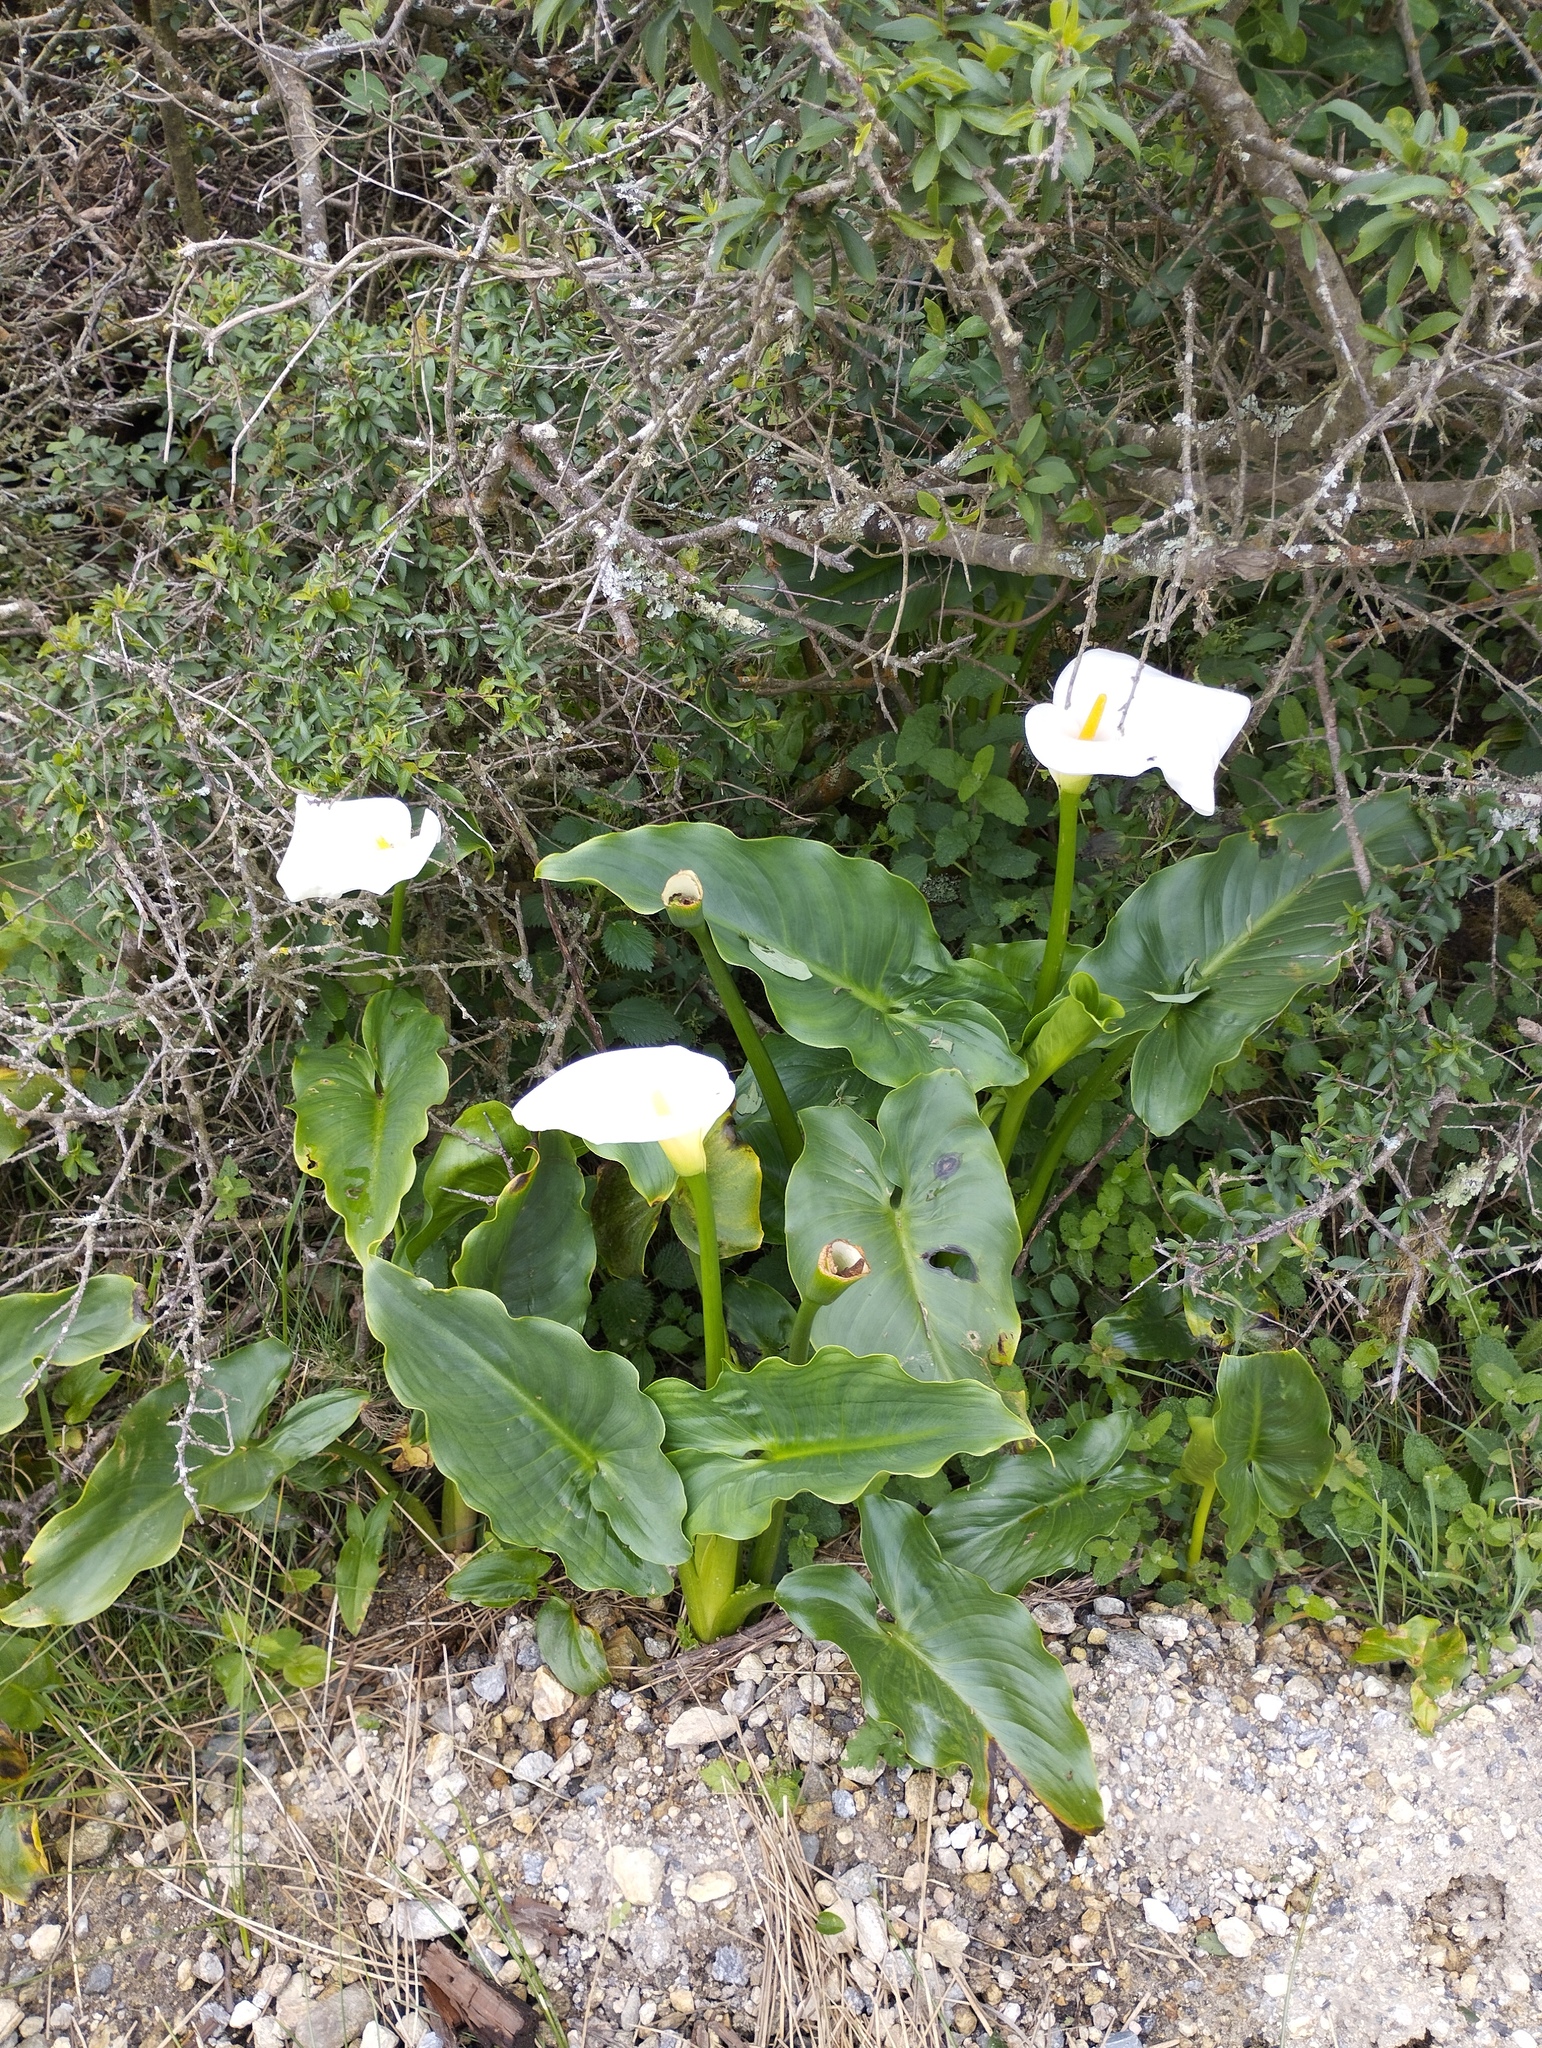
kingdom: Plantae
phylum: Tracheophyta
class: Liliopsida
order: Alismatales
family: Araceae
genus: Zantedeschia
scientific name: Zantedeschia aethiopica
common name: Altar-lily
